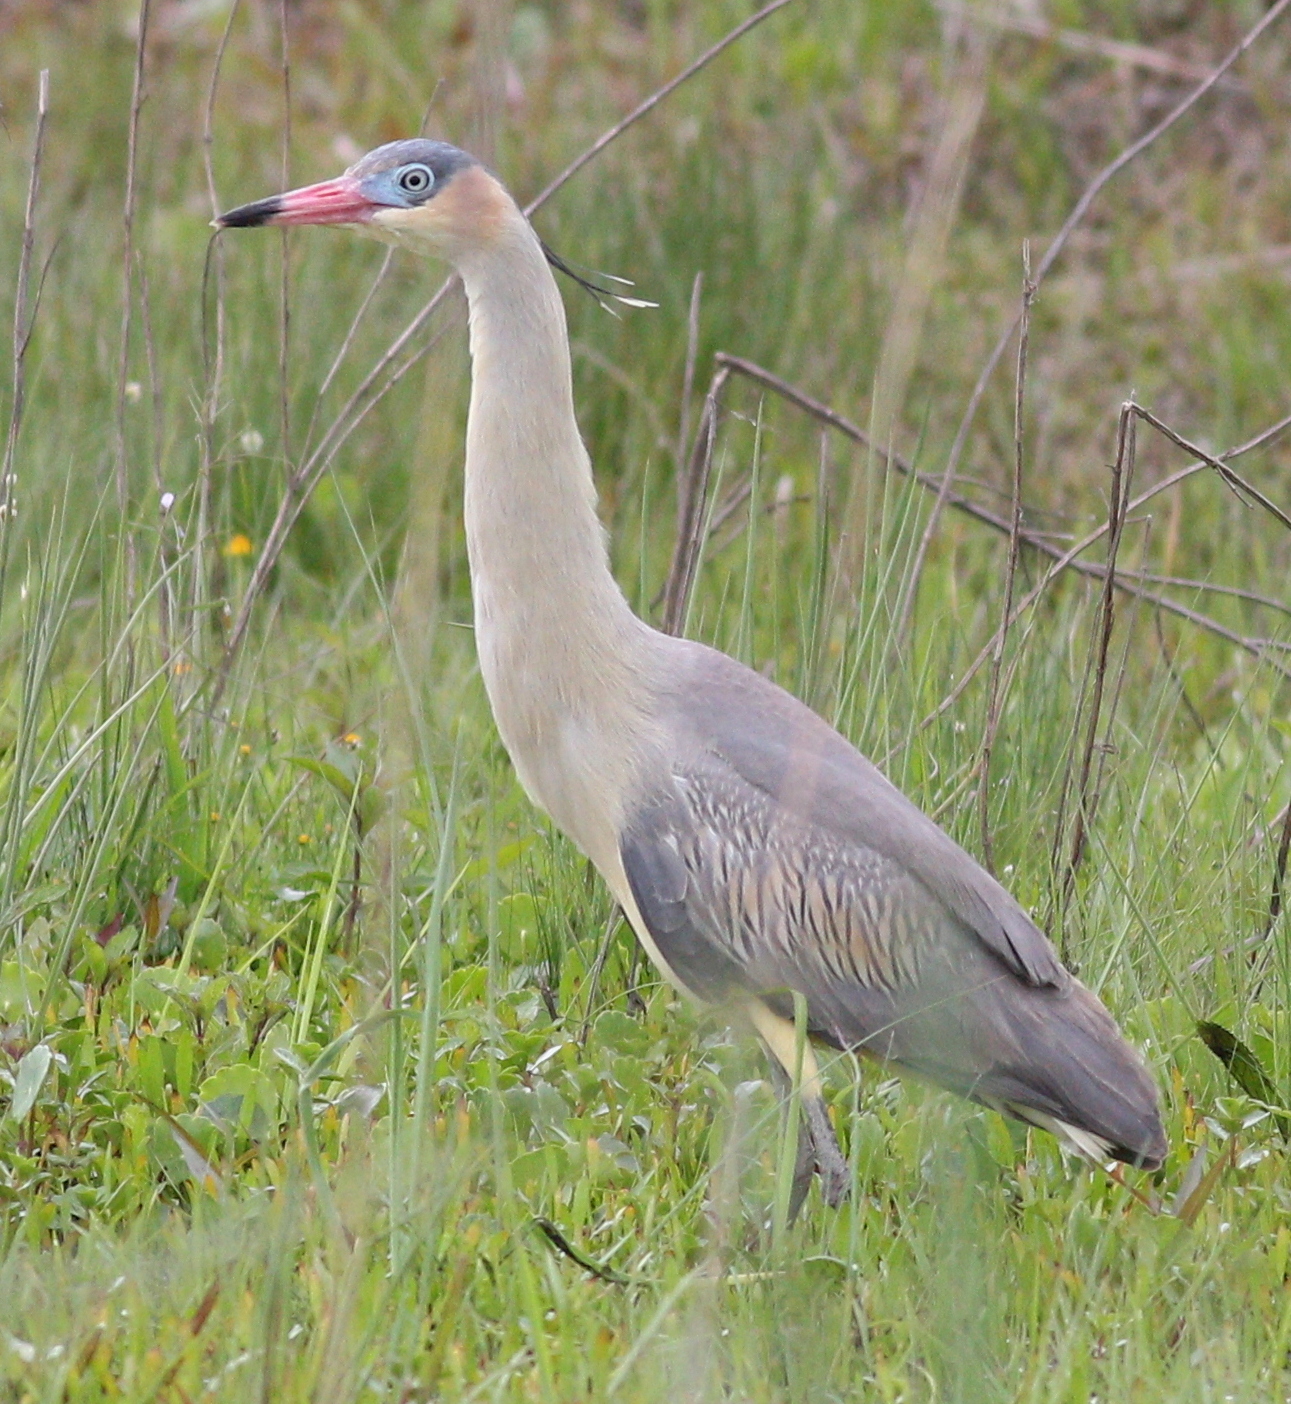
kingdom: Animalia
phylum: Chordata
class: Aves
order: Pelecaniformes
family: Ardeidae
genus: Syrigma
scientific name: Syrigma sibilatrix
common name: Whistling heron
